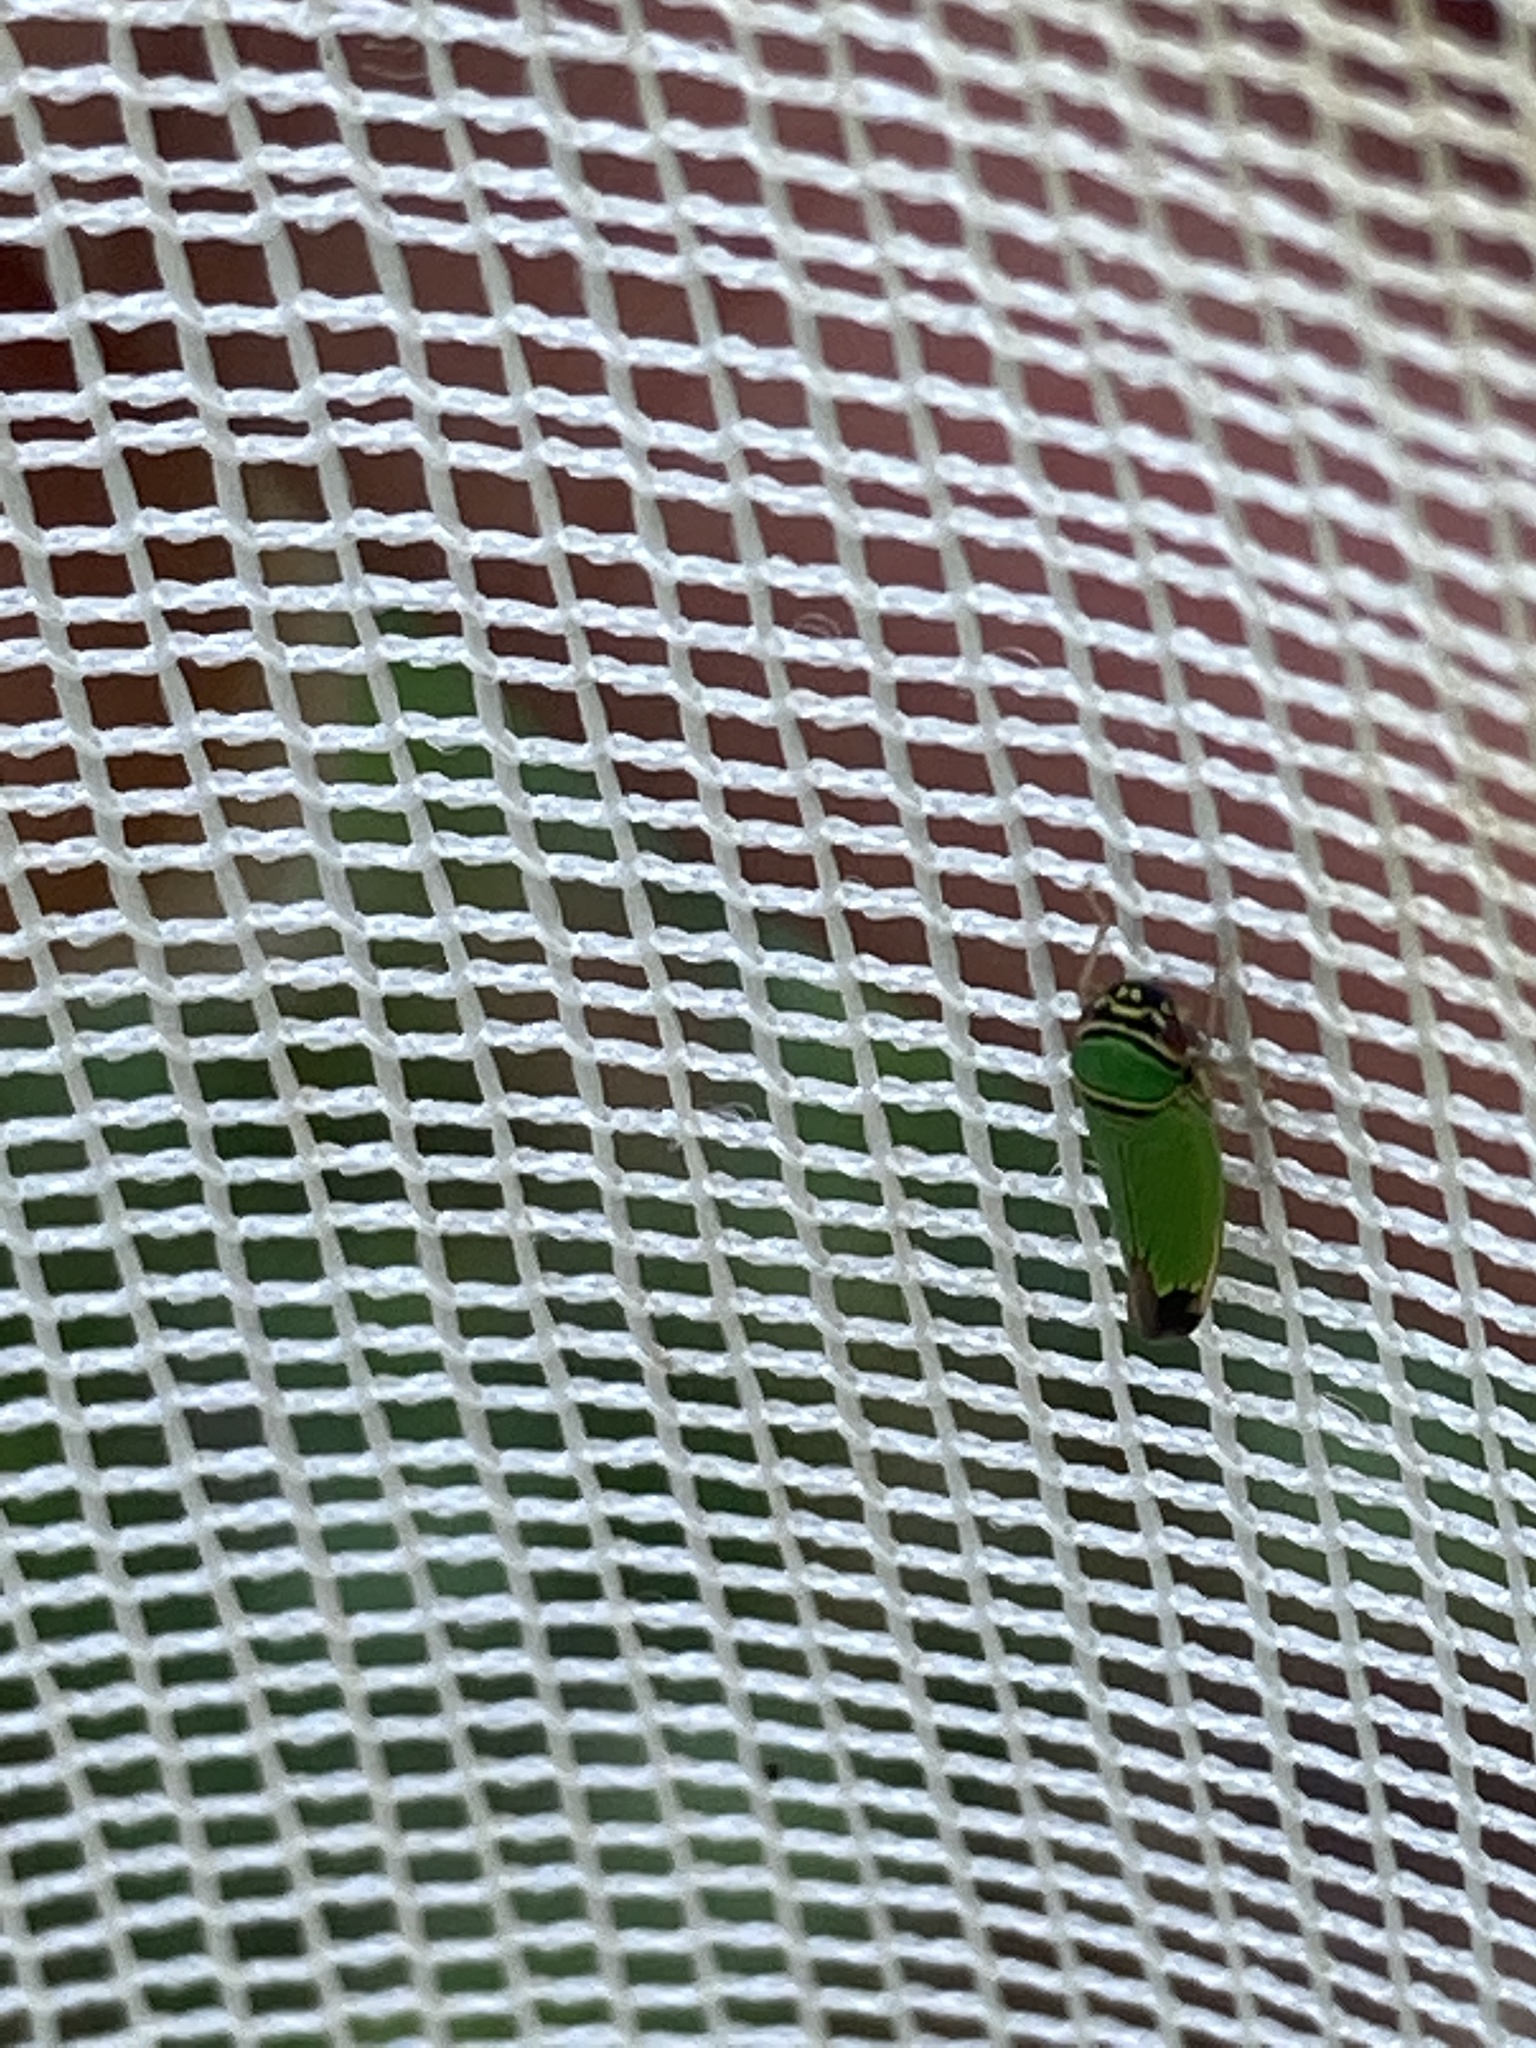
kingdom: Animalia
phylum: Arthropoda
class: Insecta
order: Hemiptera
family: Cicadellidae
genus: Tylozygus
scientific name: Tylozygus geometricus
